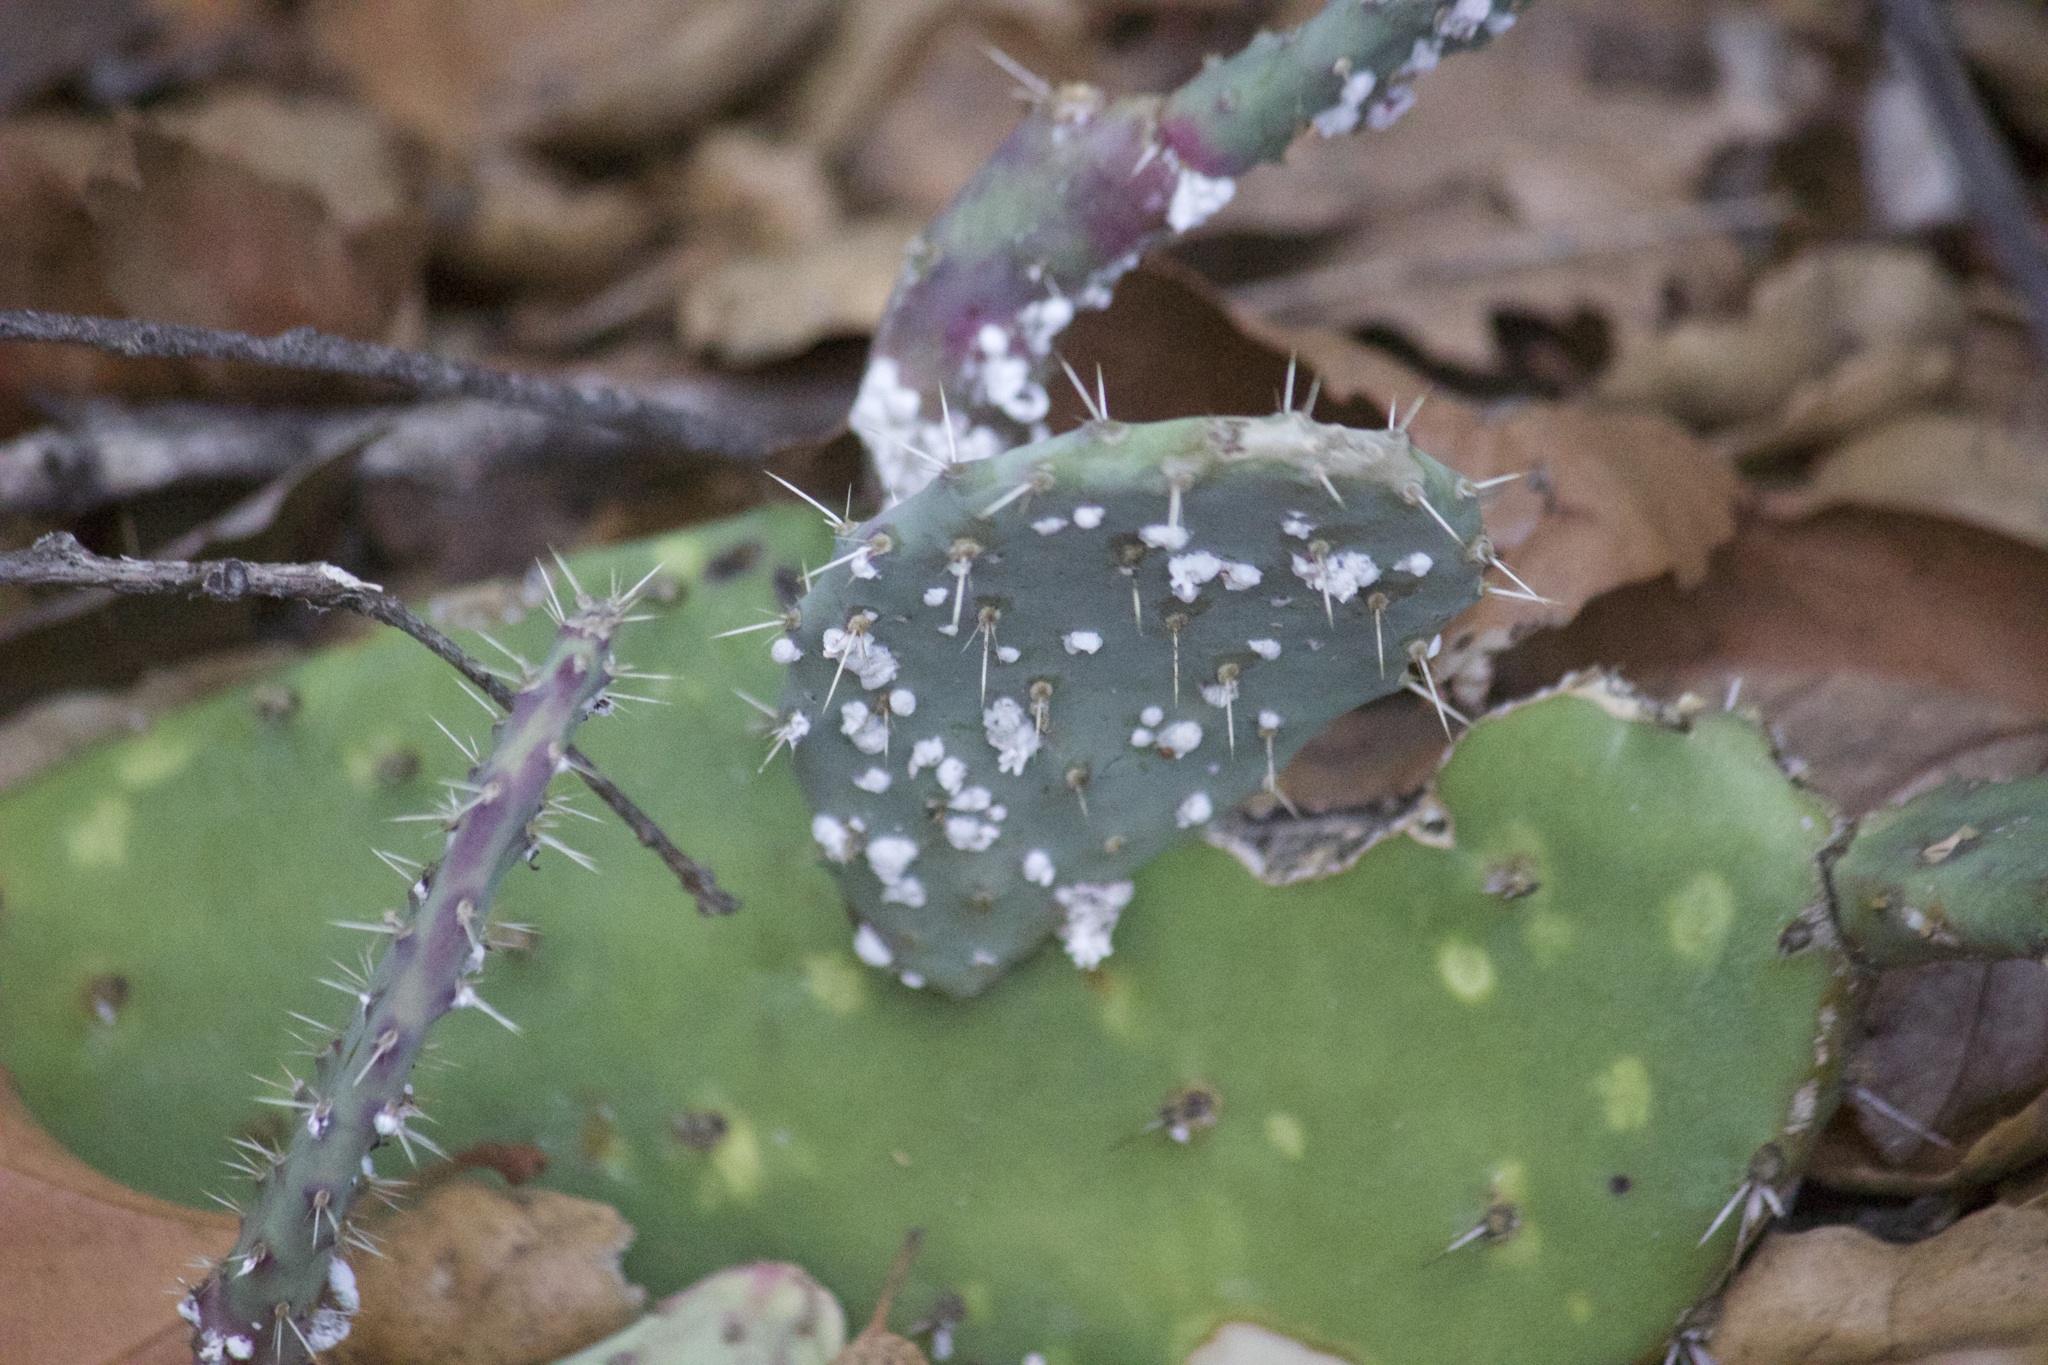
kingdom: Animalia
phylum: Arthropoda
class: Insecta
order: Hemiptera
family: Dactylopiidae
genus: Dactylopius
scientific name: Dactylopius
